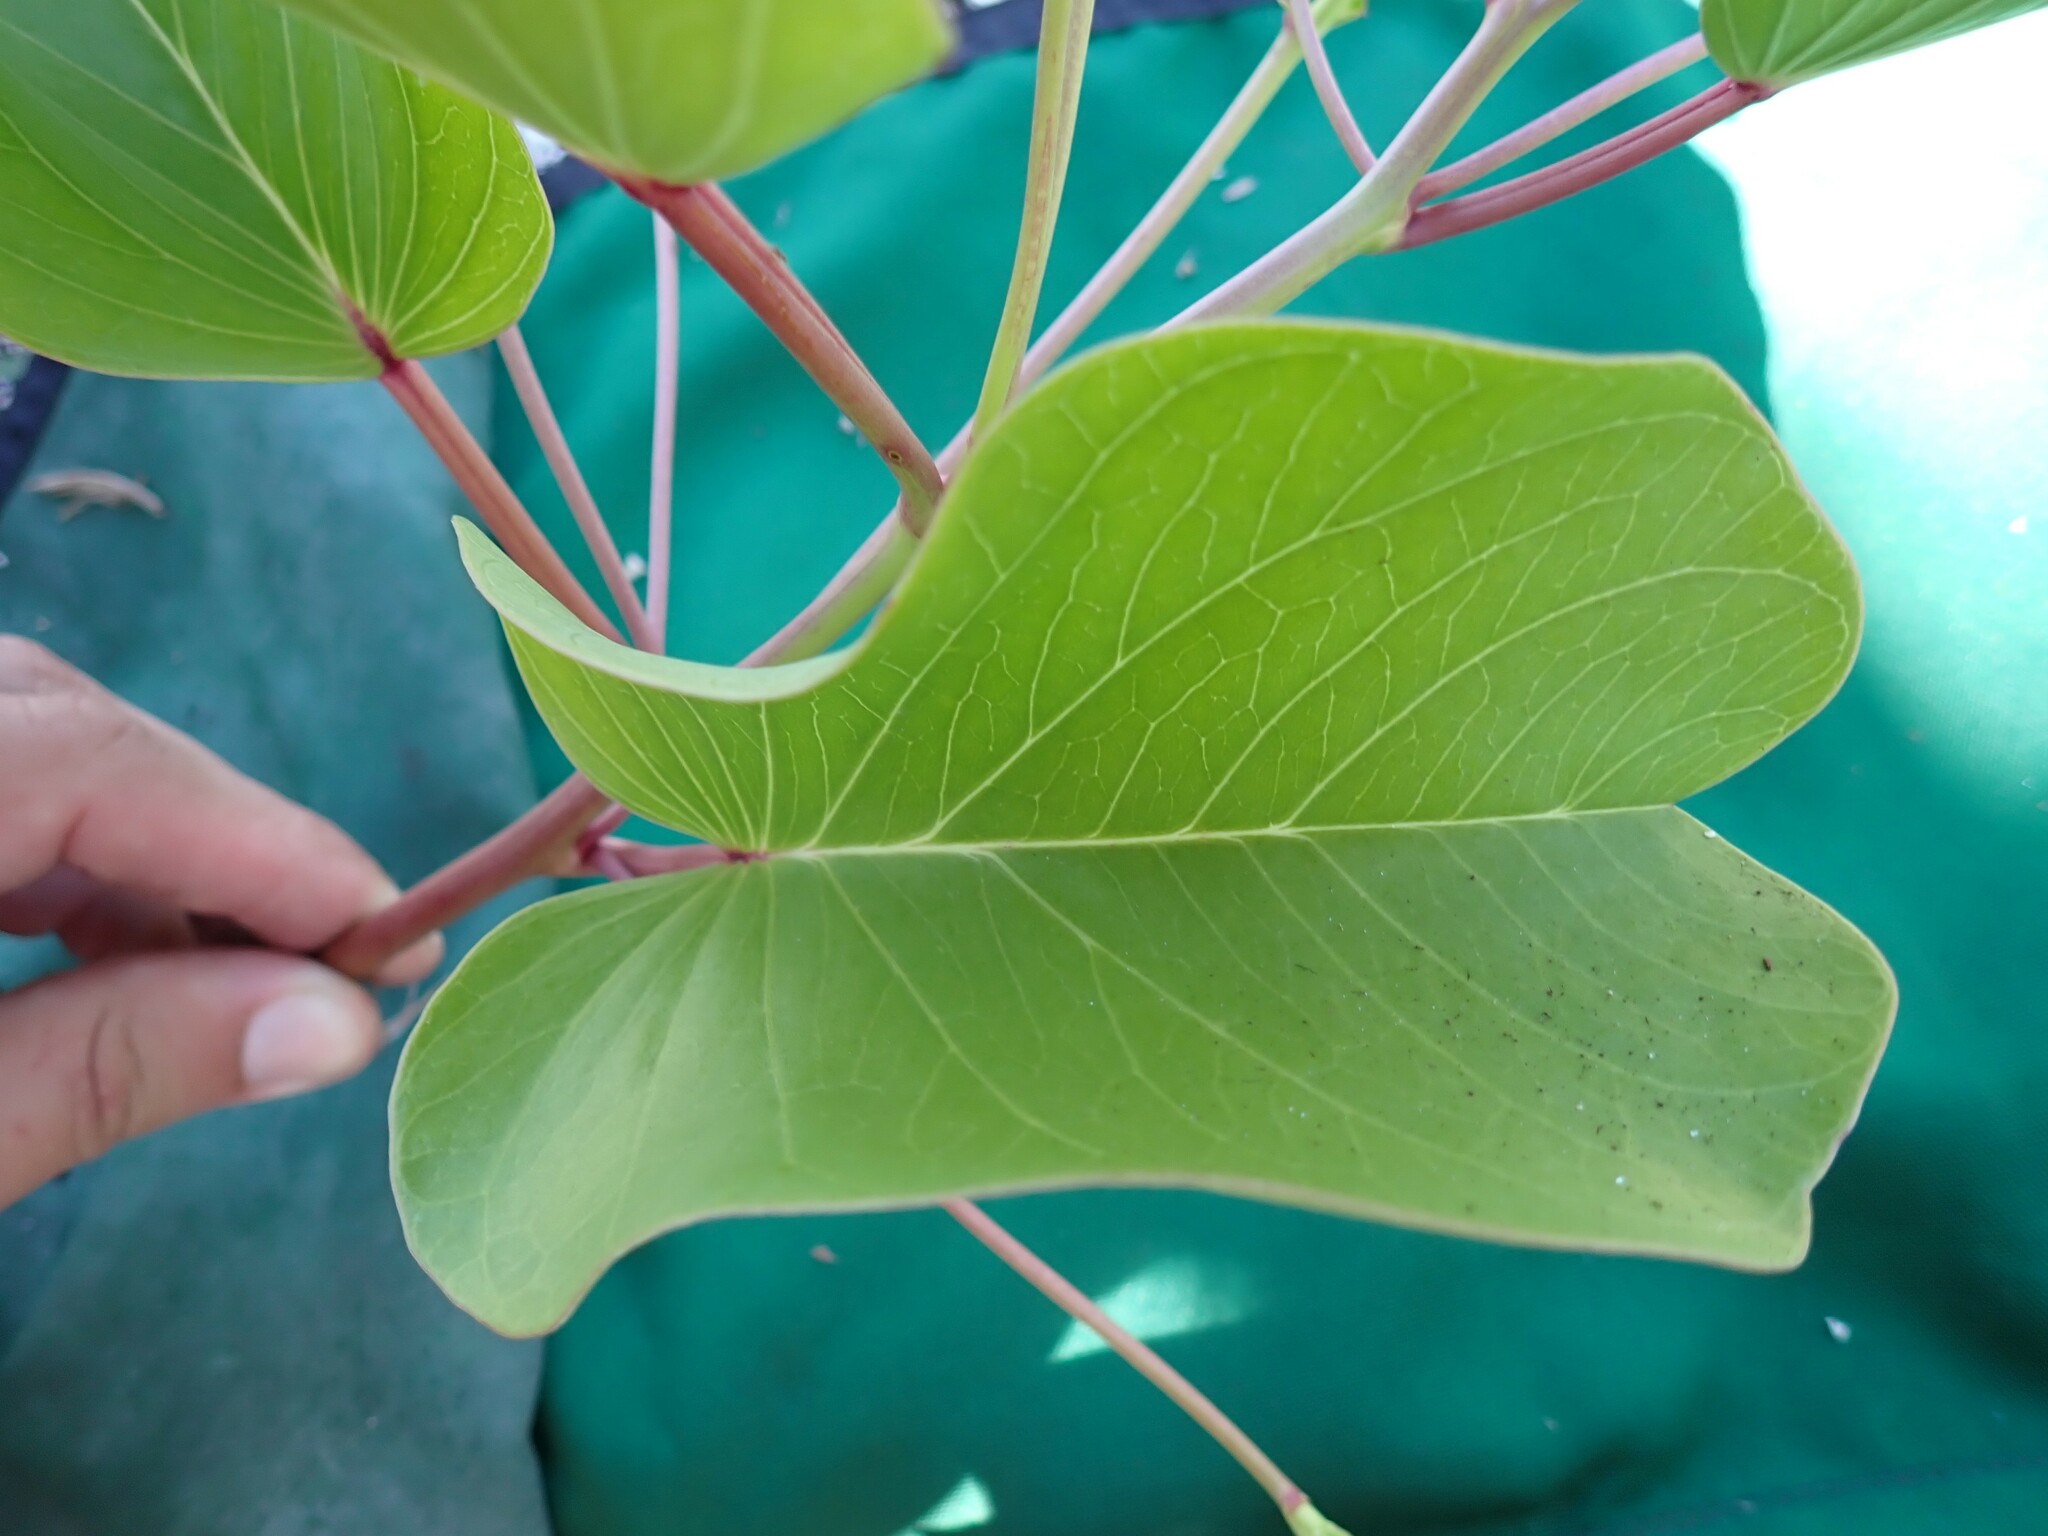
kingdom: Plantae
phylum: Tracheophyta
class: Magnoliopsida
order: Solanales
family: Convolvulaceae
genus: Ipomoea
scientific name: Ipomoea pes-caprae
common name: Beach morning glory
